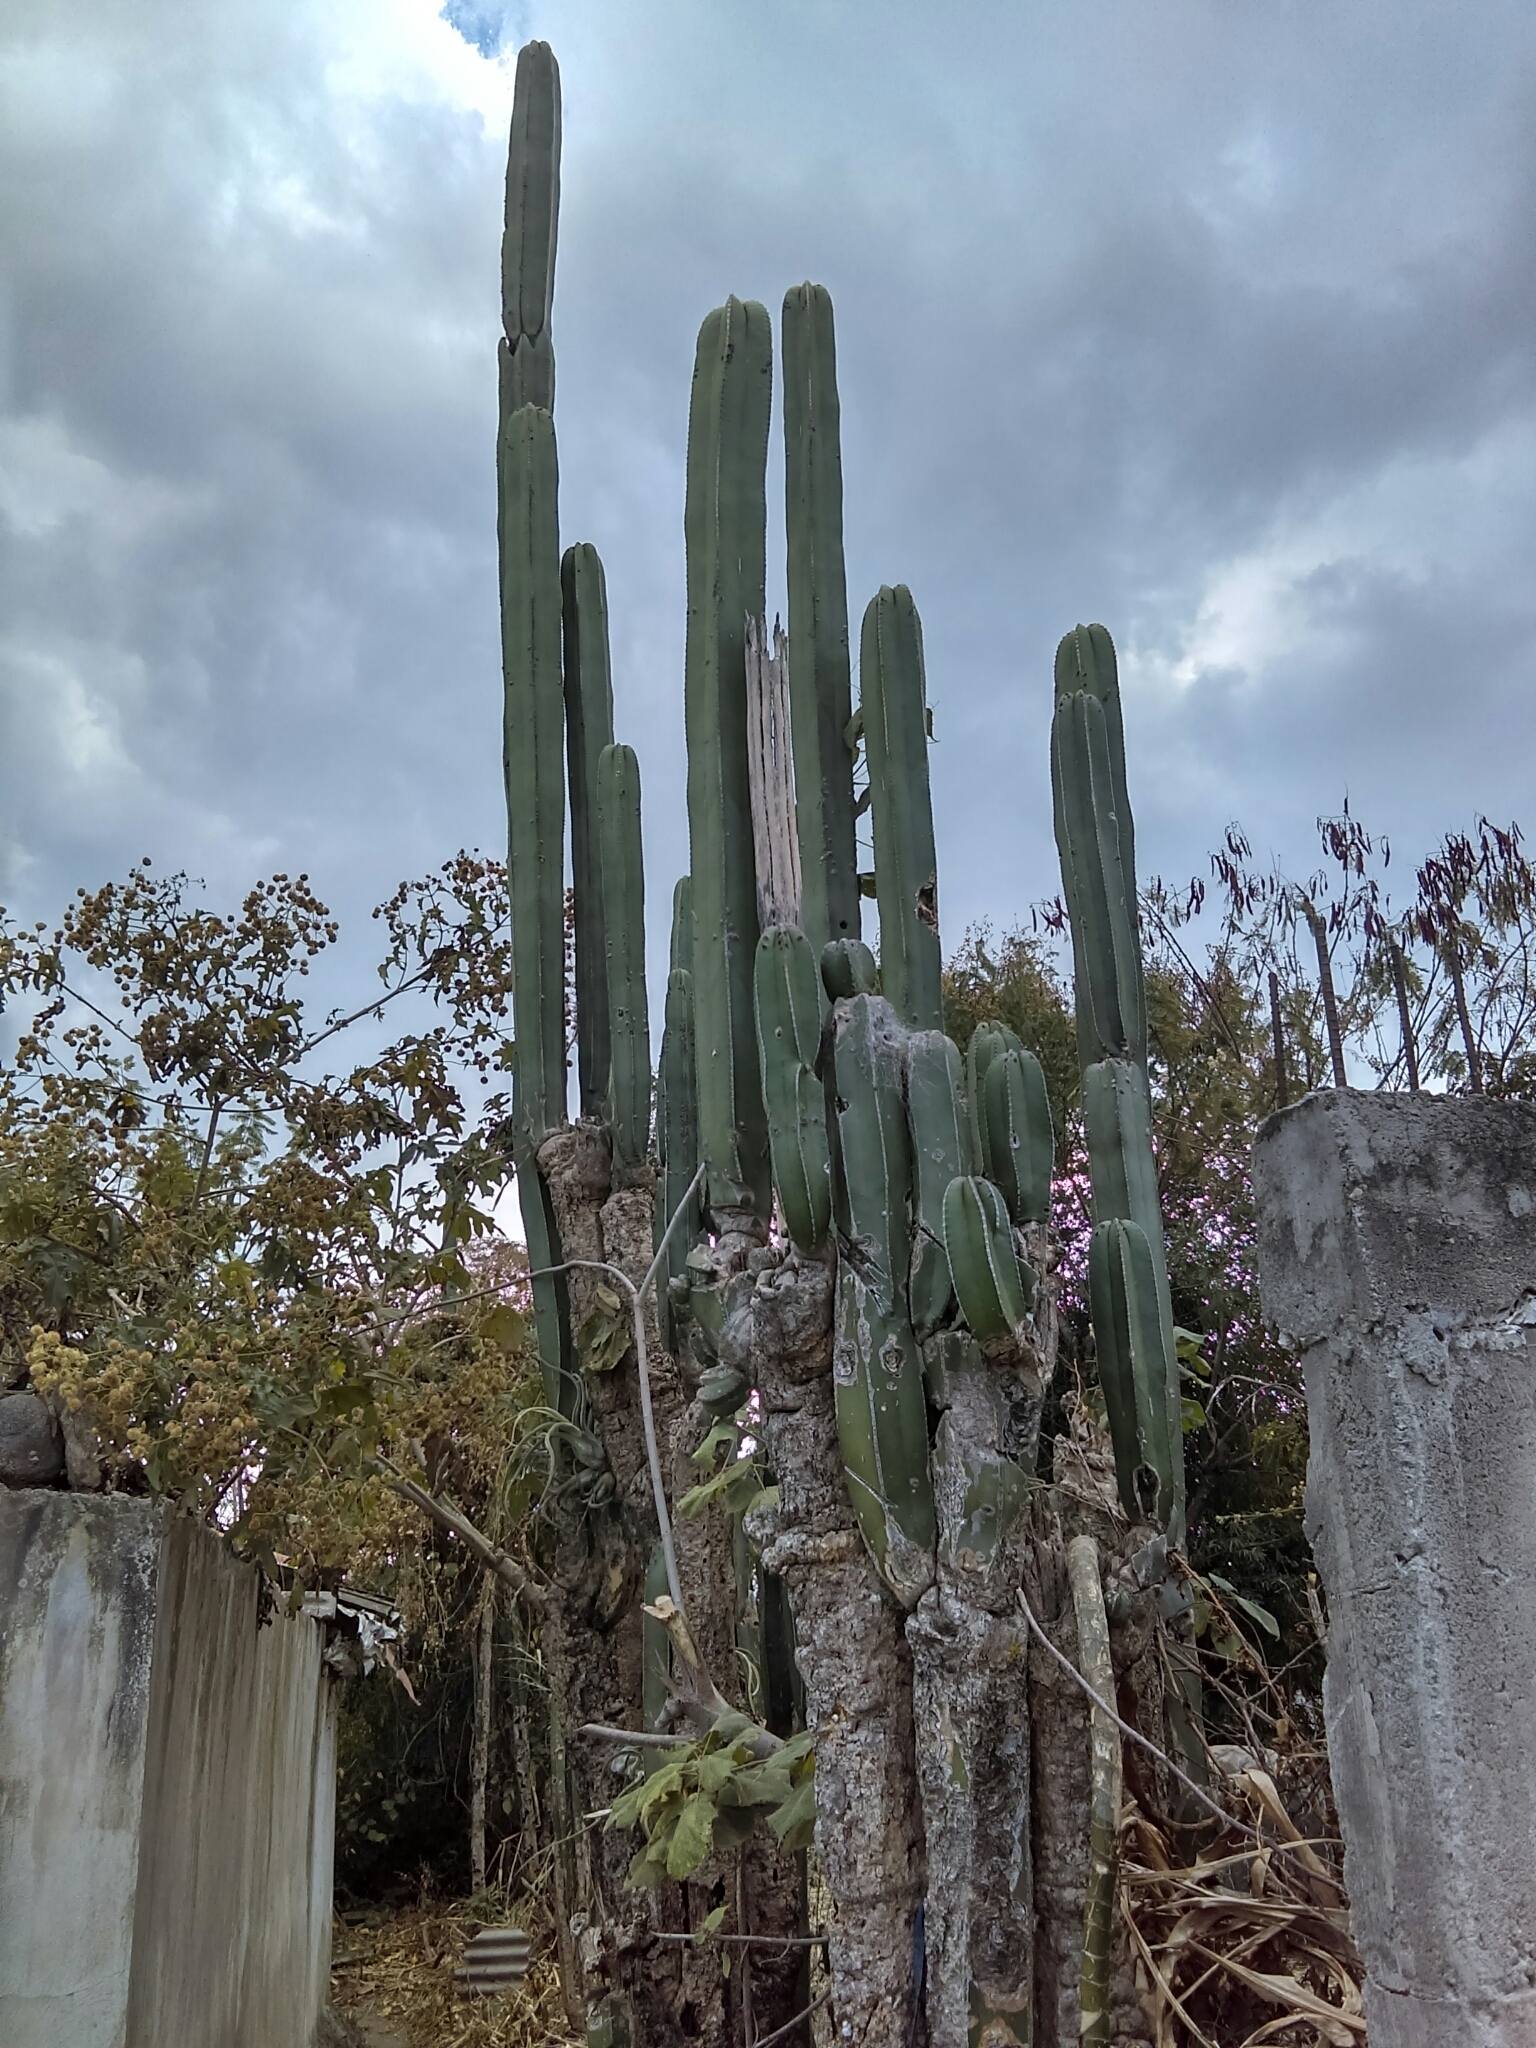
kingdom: Plantae
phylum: Tracheophyta
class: Magnoliopsida
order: Caryophyllales
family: Cactaceae
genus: Marginatocereus
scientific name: Marginatocereus marginatus
